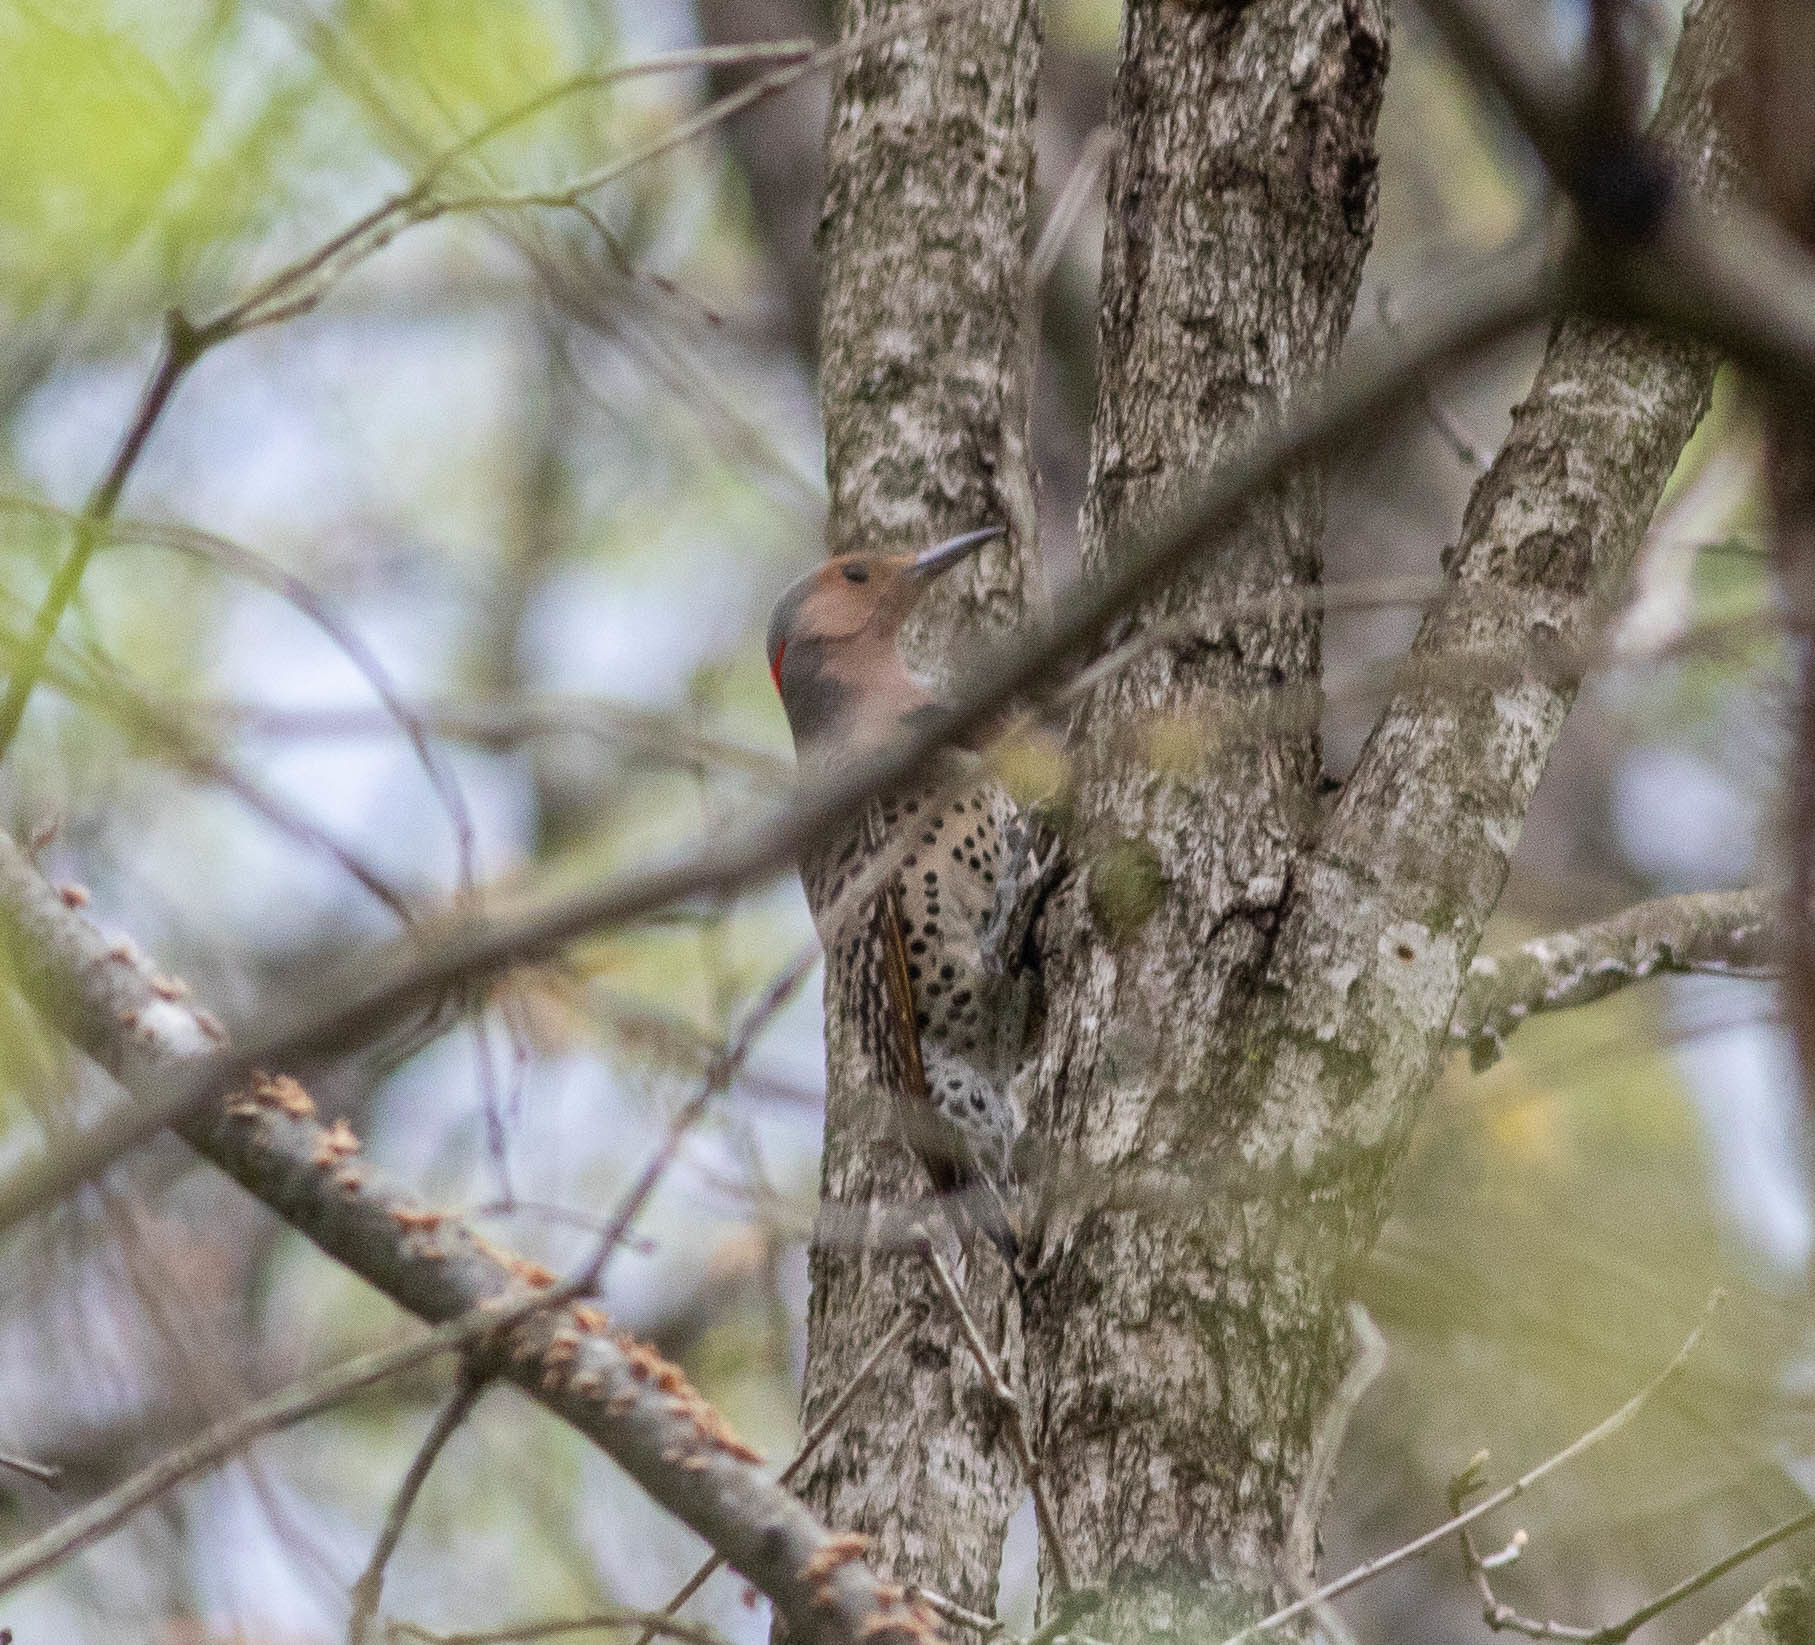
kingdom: Animalia
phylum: Chordata
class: Aves
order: Piciformes
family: Picidae
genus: Colaptes
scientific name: Colaptes auratus
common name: Northern flicker
